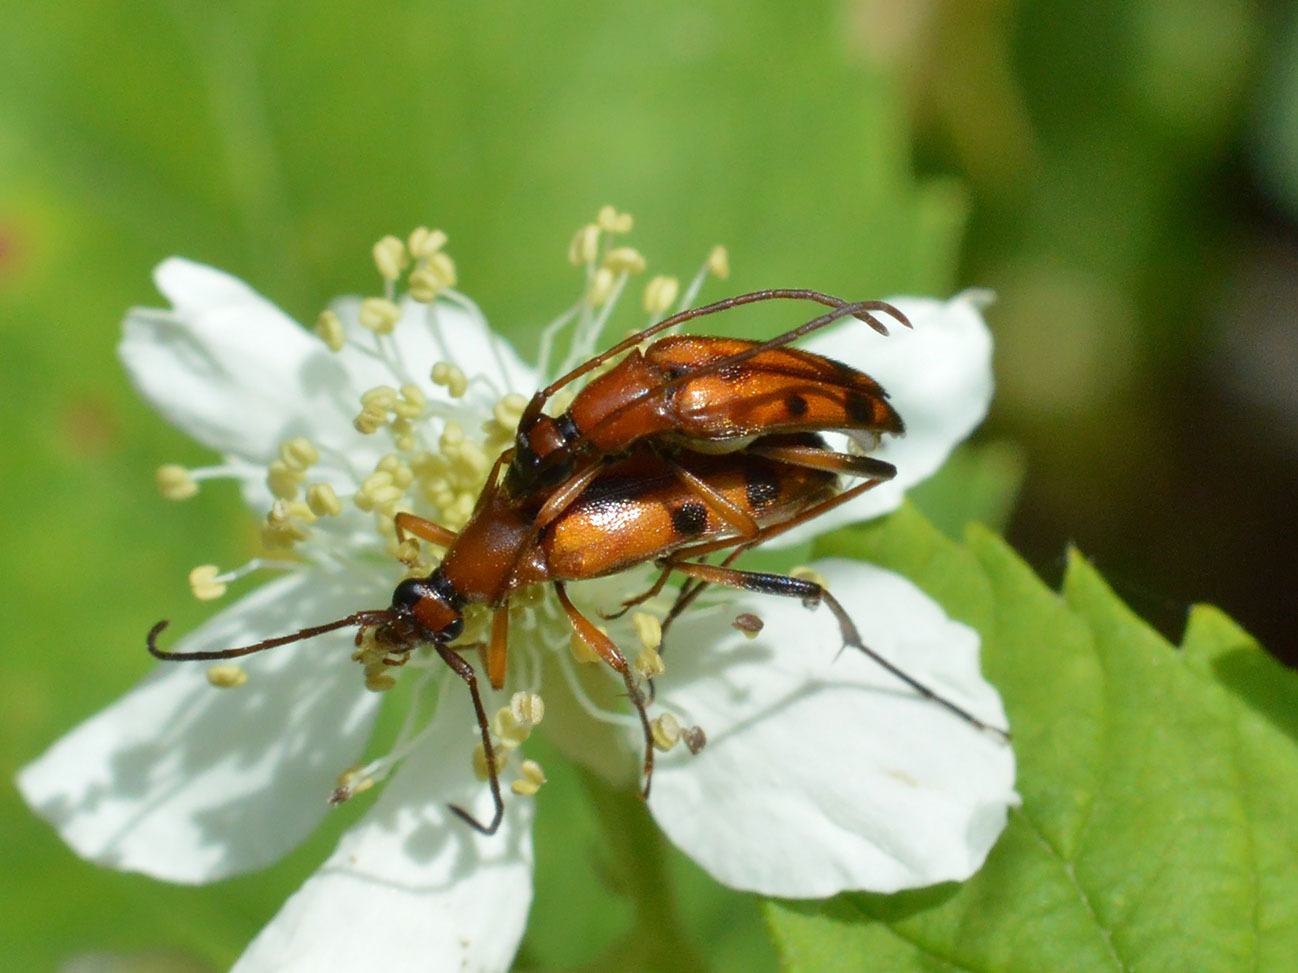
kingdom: Animalia
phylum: Arthropoda
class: Insecta
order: Coleoptera
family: Cerambycidae
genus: Stenurella
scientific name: Stenurella septempunctata
